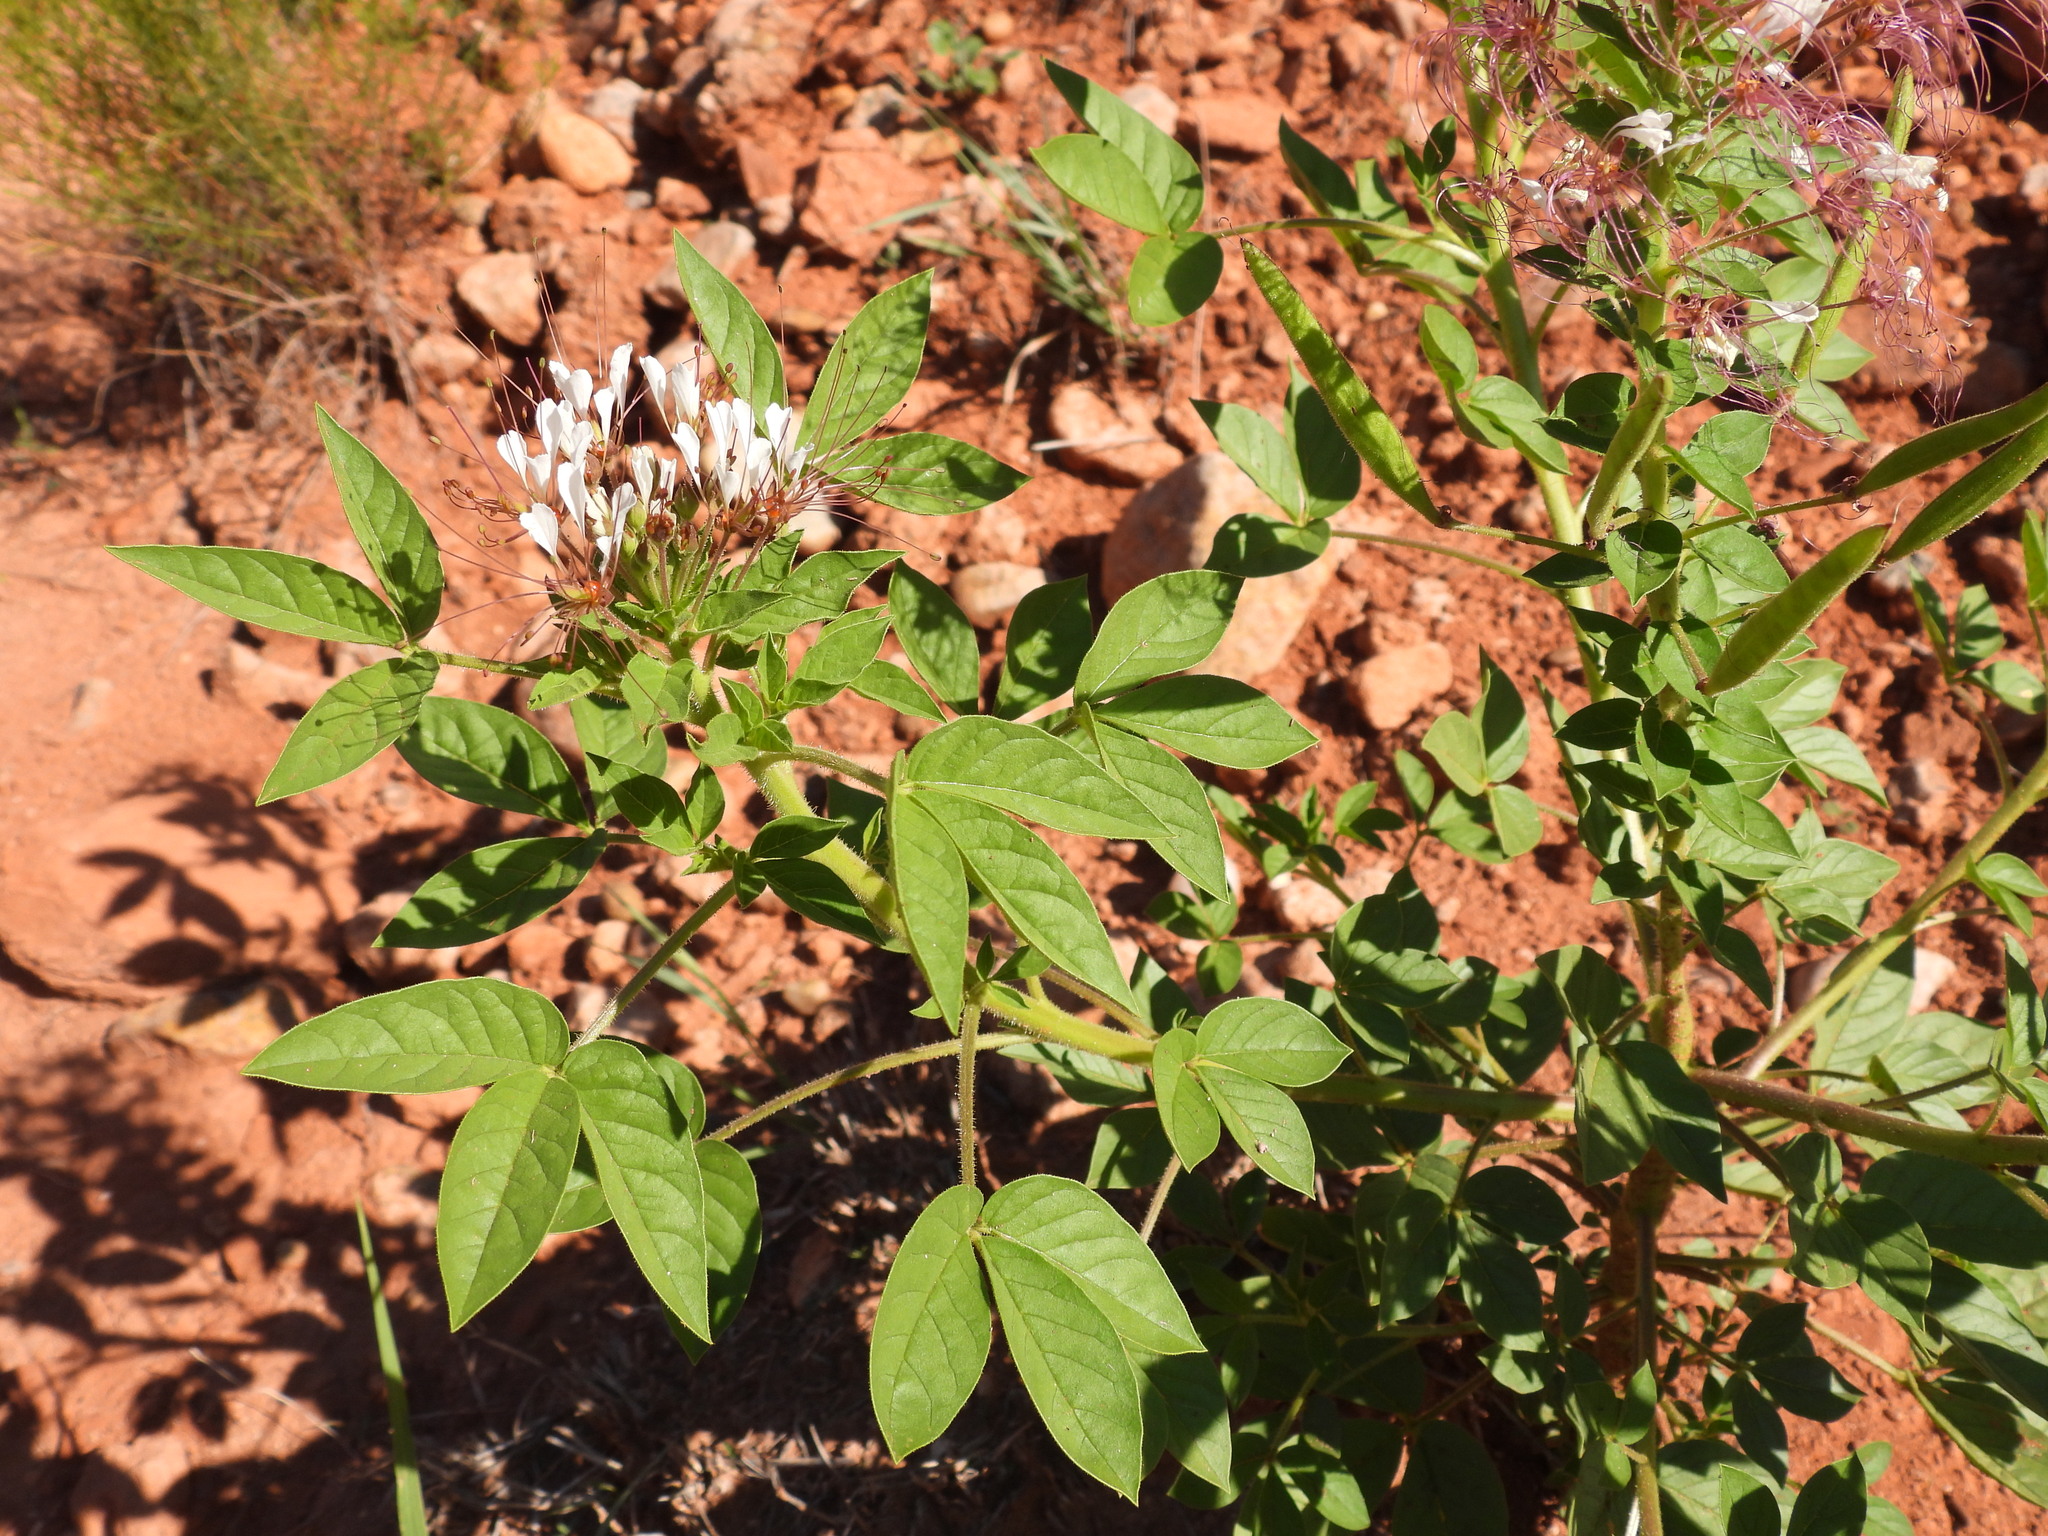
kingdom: Plantae
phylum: Tracheophyta
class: Magnoliopsida
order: Brassicales
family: Cleomaceae
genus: Polanisia
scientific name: Polanisia dodecandra
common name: Clammyweed
